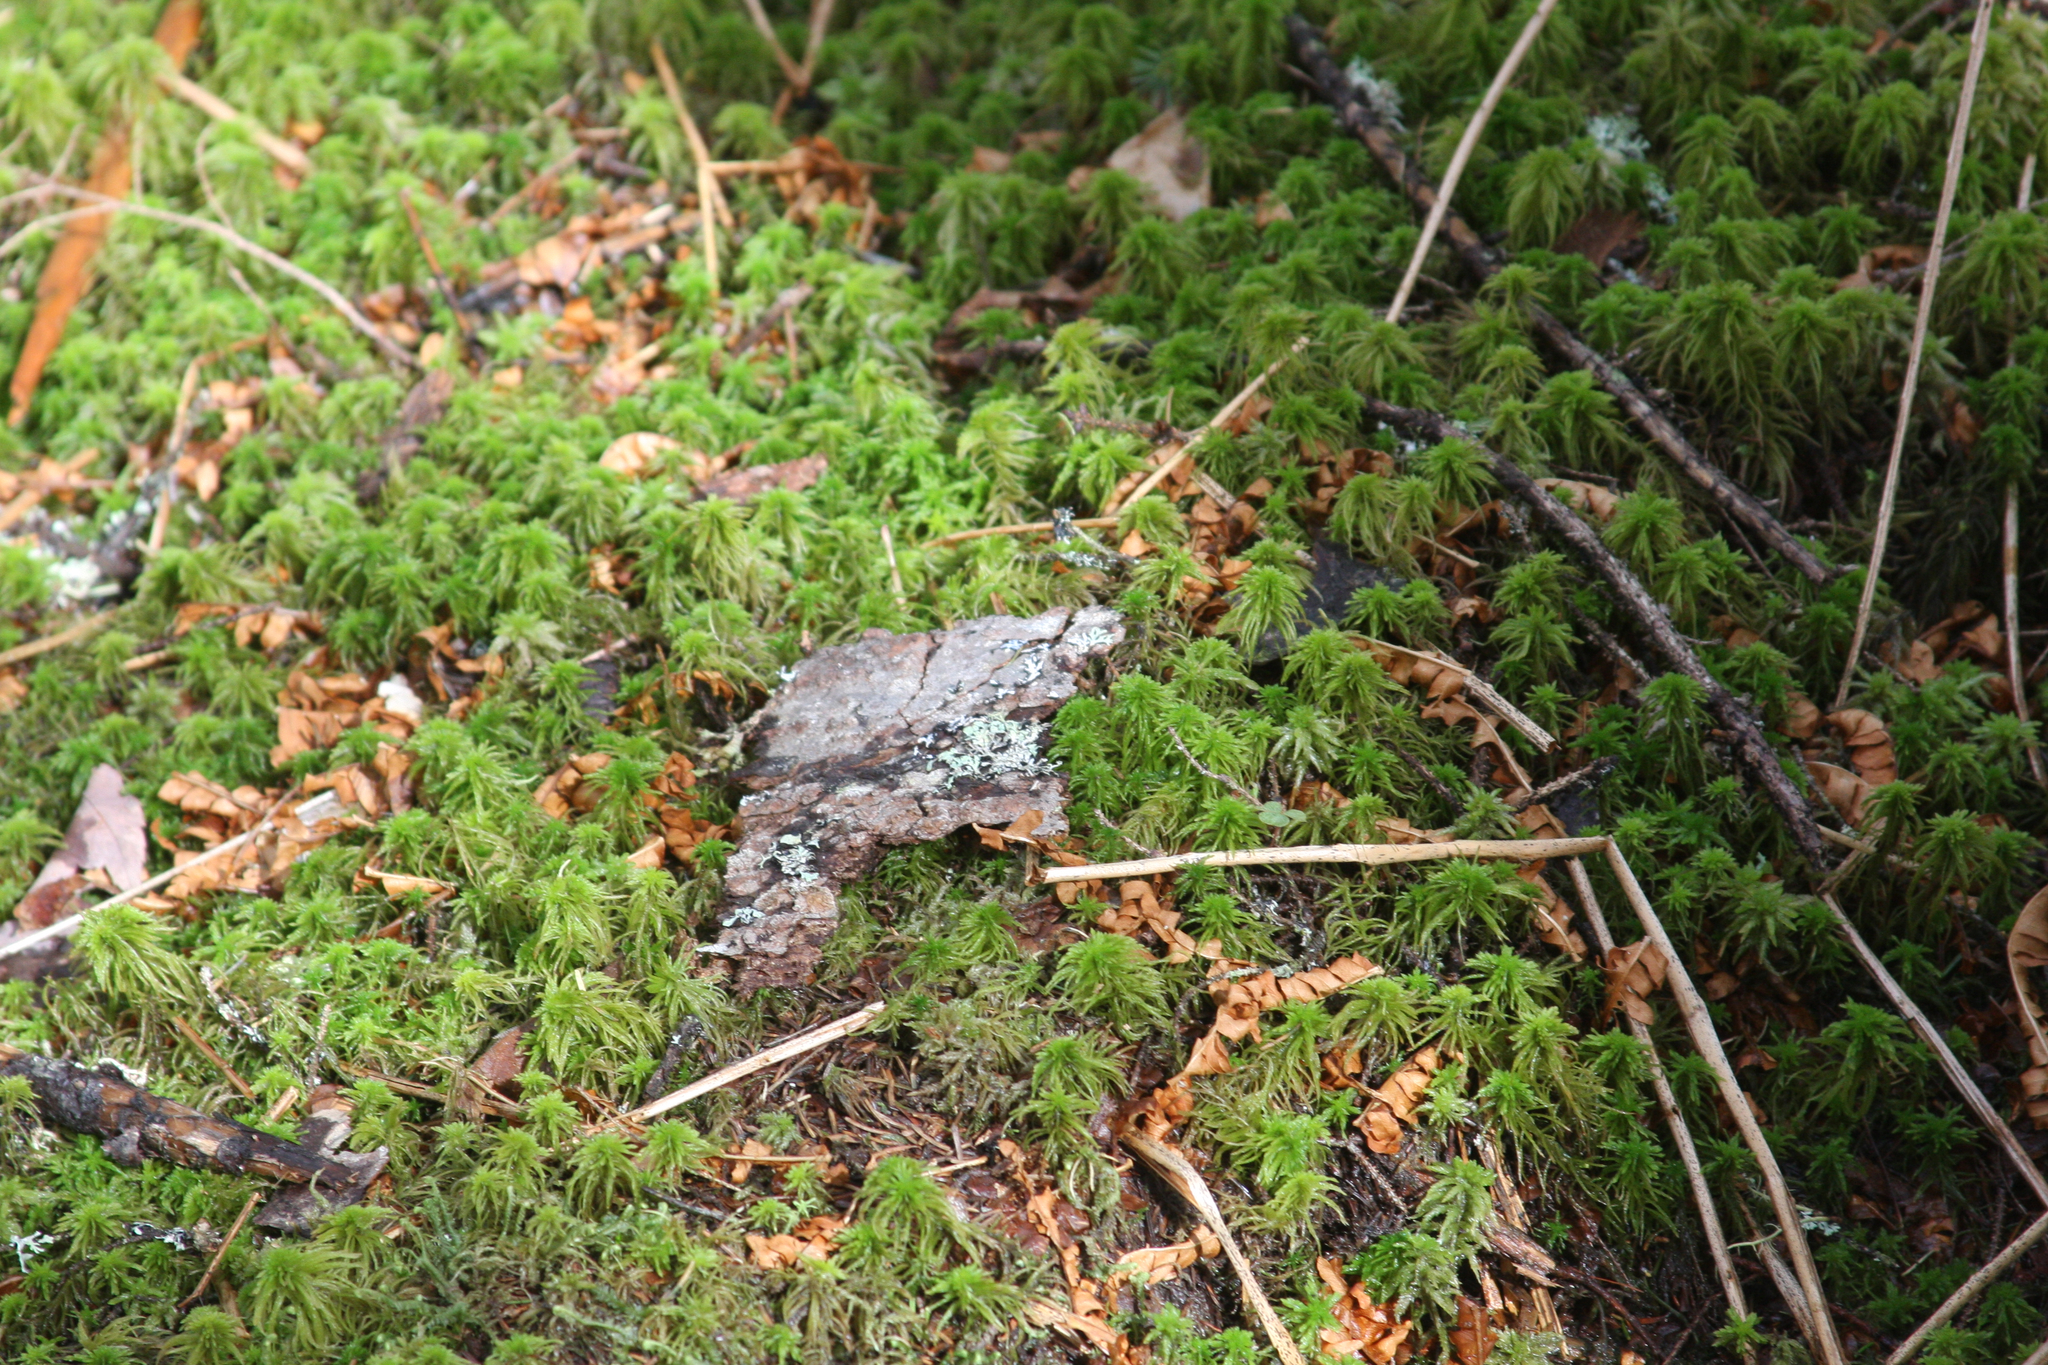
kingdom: Plantae
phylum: Bryophyta
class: Sphagnopsida
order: Sphagnales
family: Sphagnaceae
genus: Sphagnum
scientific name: Sphagnum
